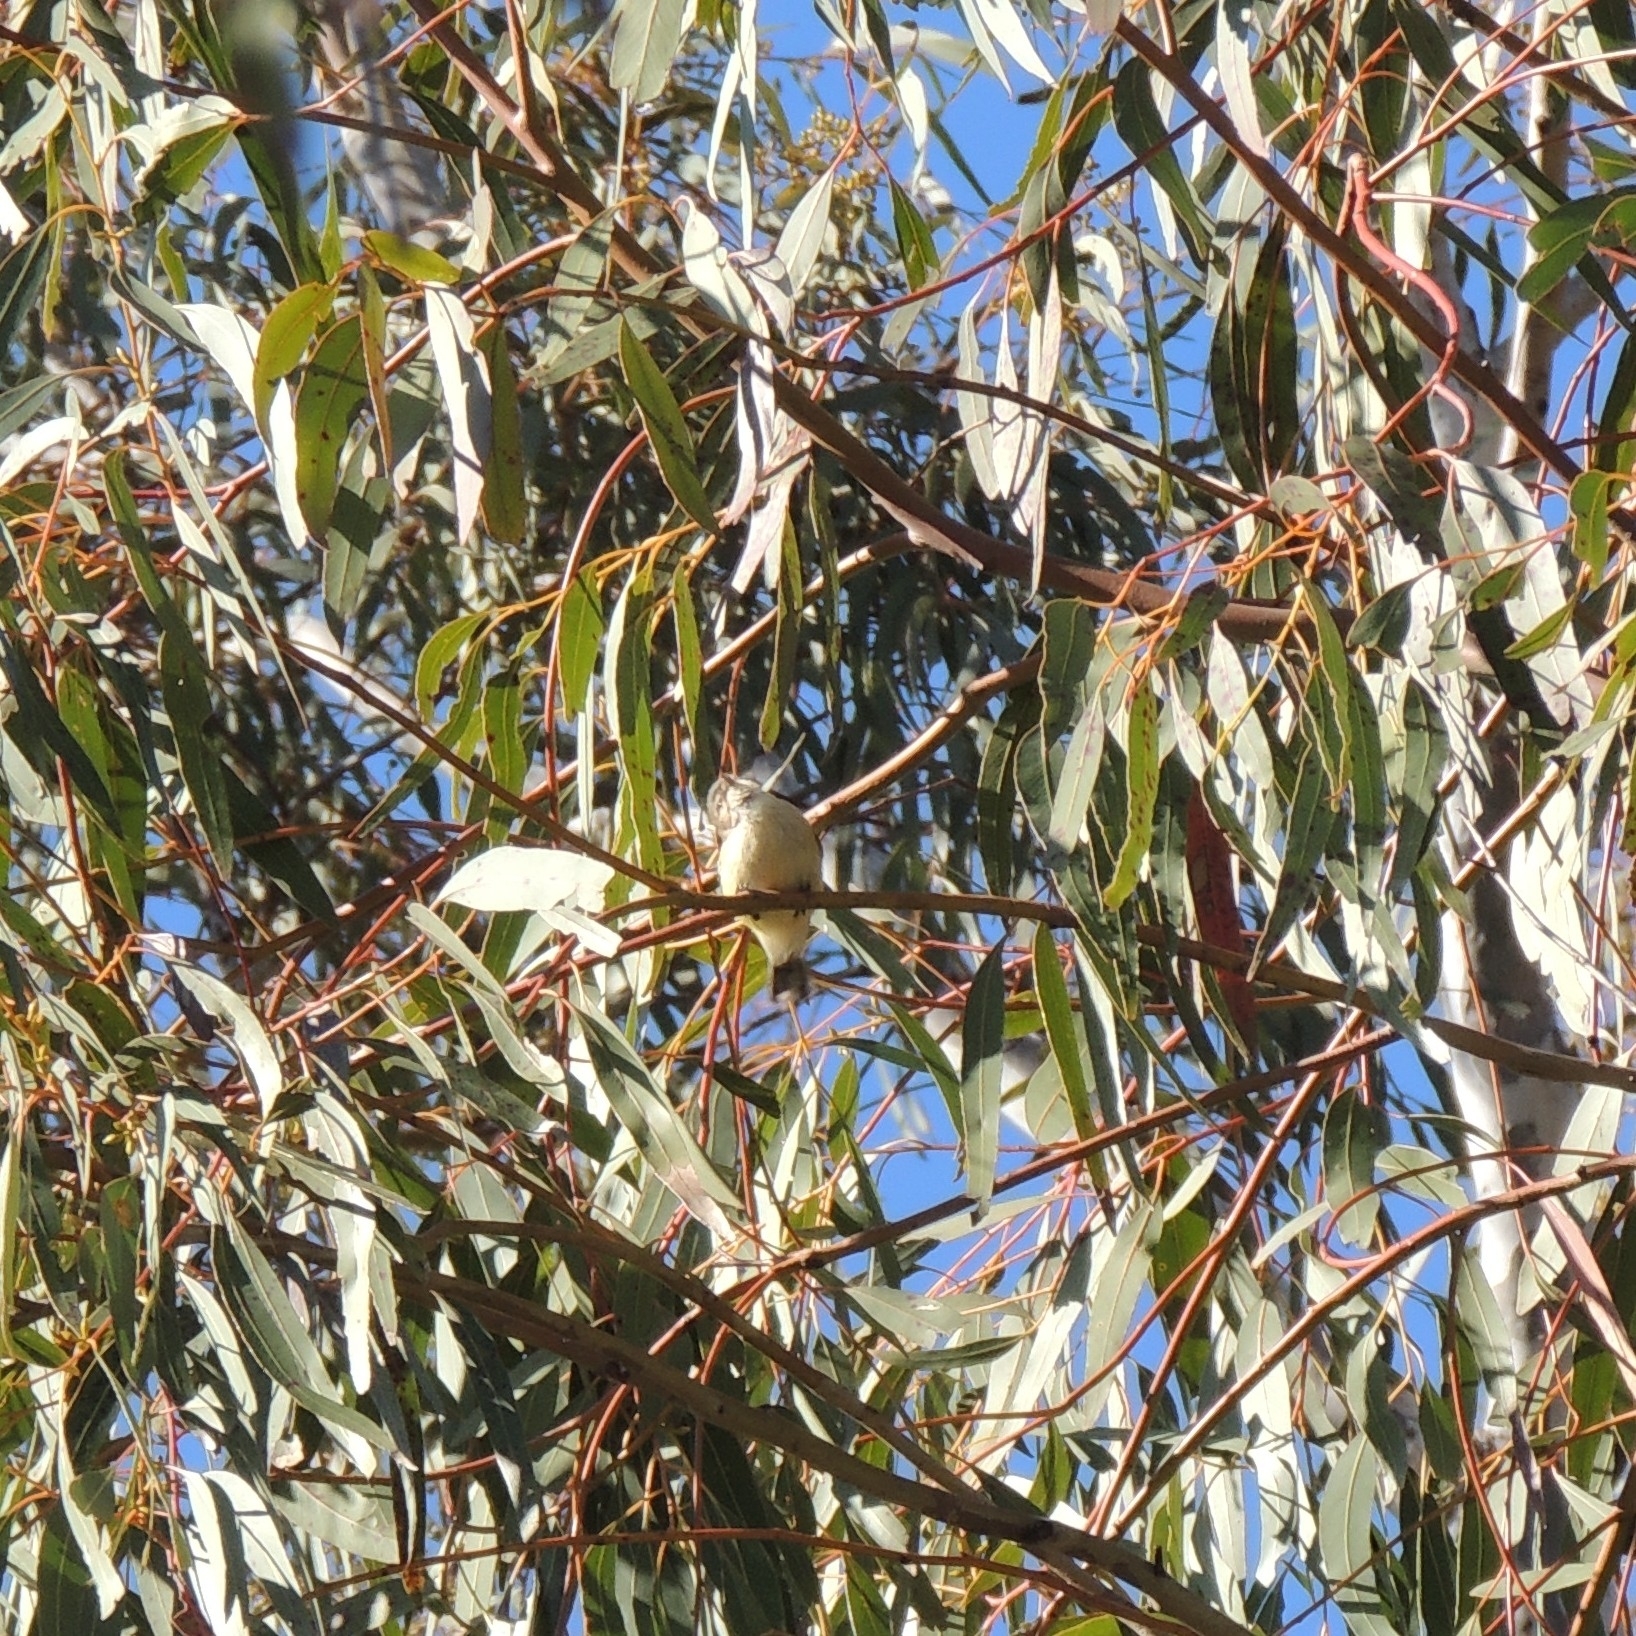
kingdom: Animalia
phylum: Chordata
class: Aves
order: Passeriformes
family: Acanthizidae
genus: Smicrornis
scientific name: Smicrornis brevirostris
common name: Weebill
